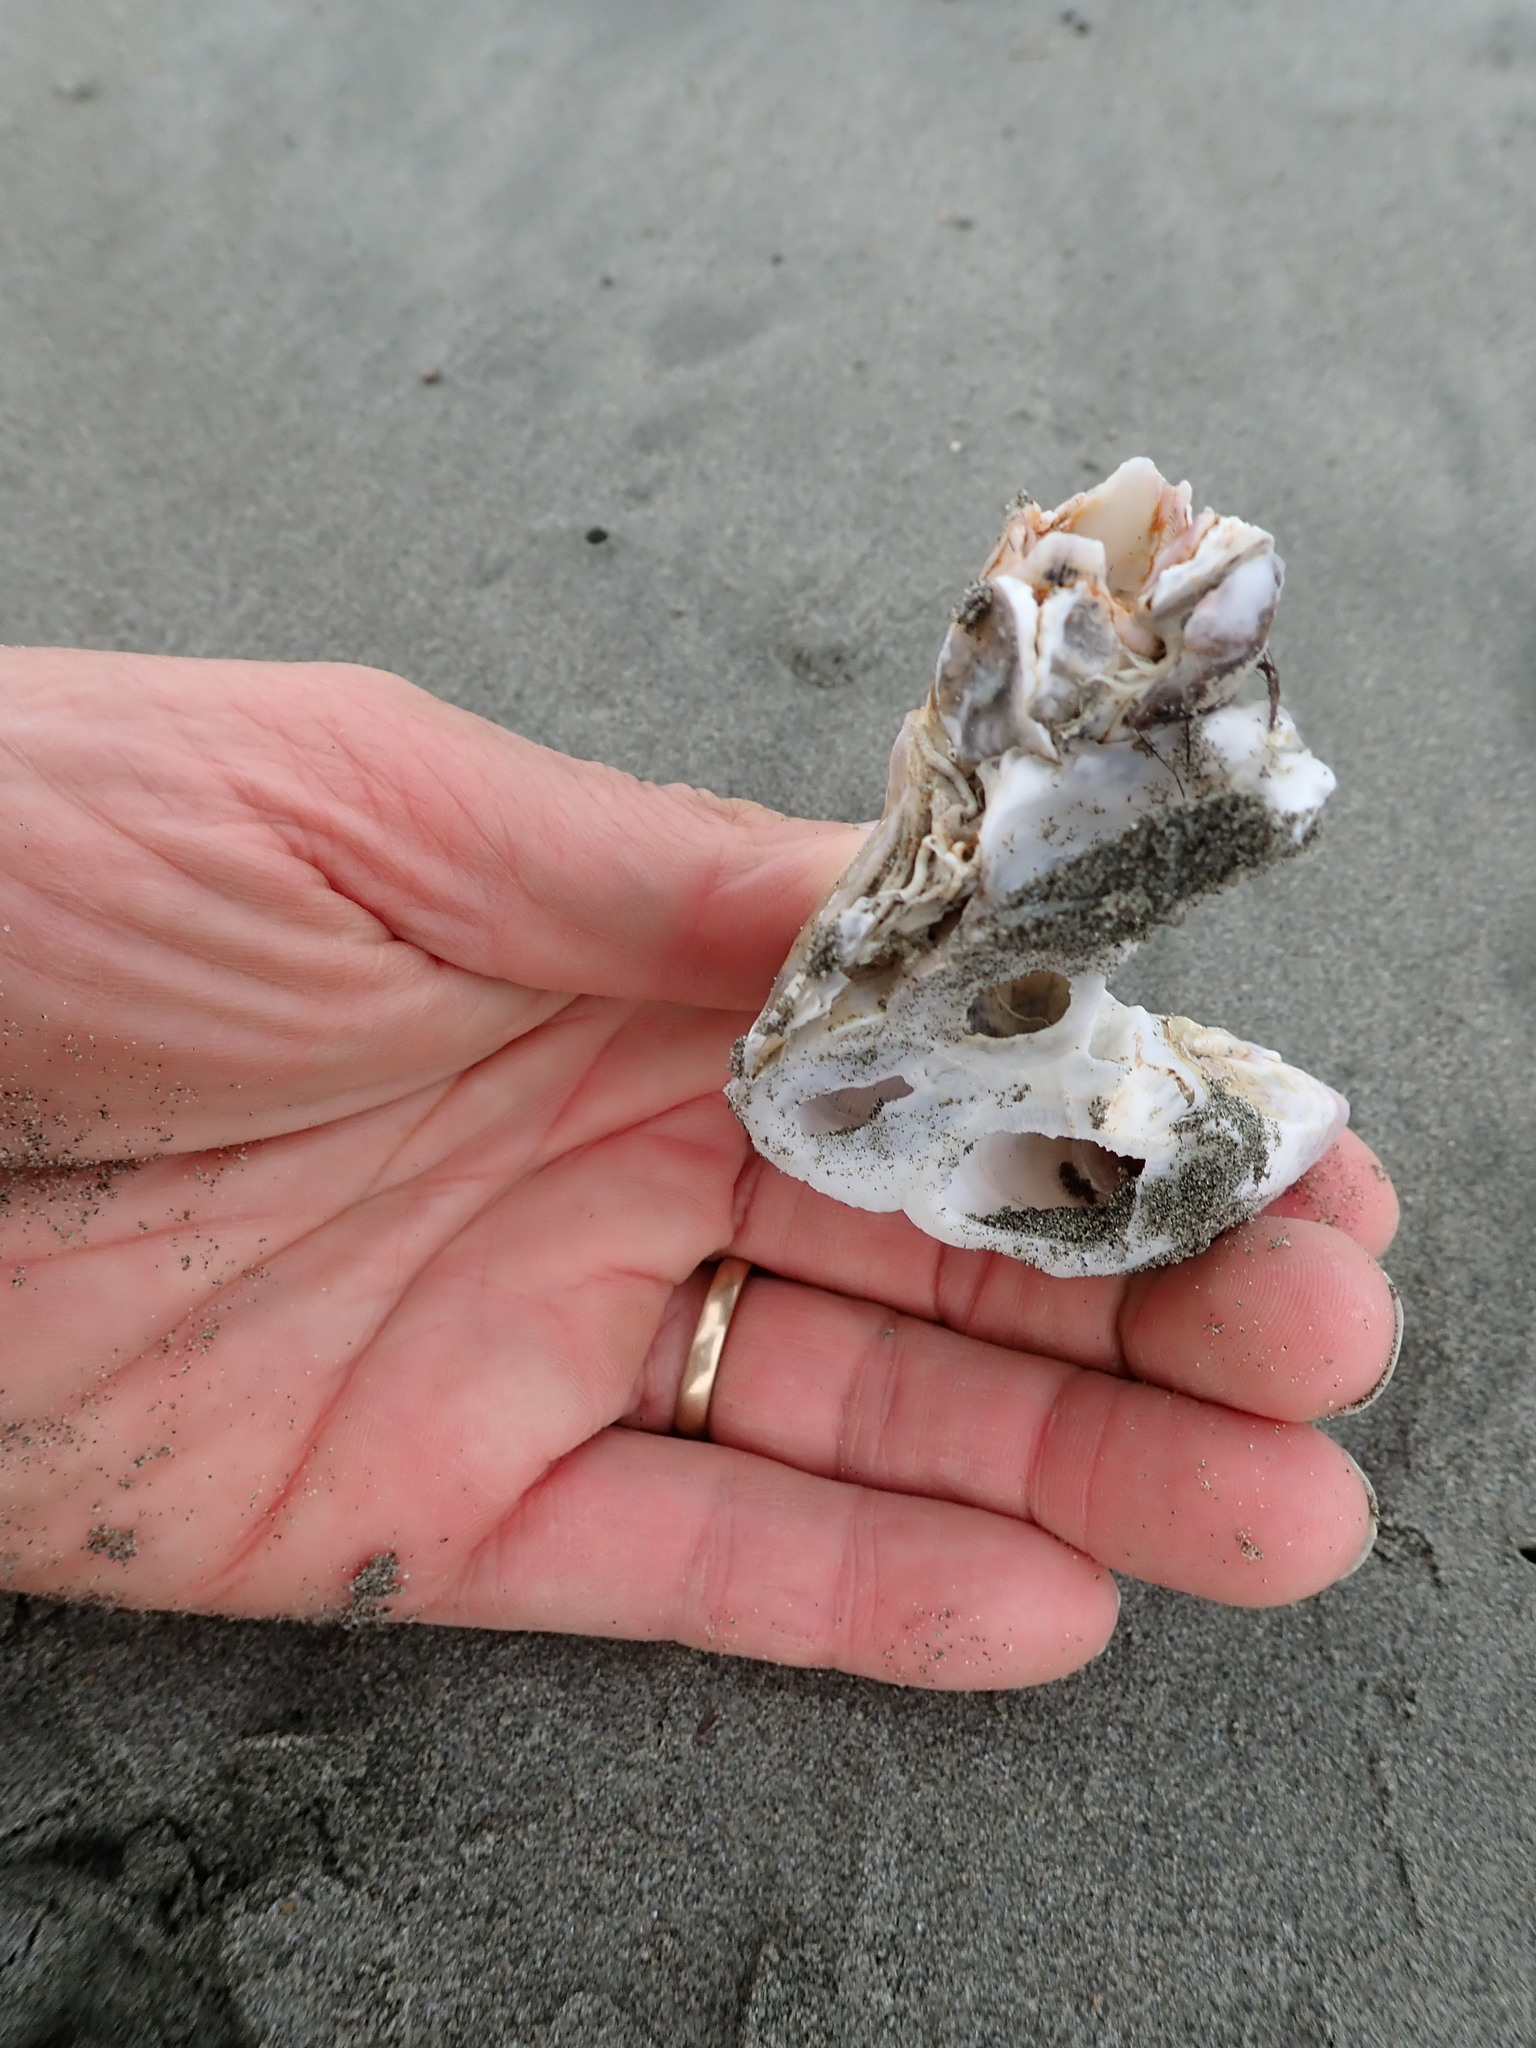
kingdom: Animalia
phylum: Arthropoda
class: Maxillopoda
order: Sessilia
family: Balanidae
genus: Notomegabalanus
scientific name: Notomegabalanus decorus
